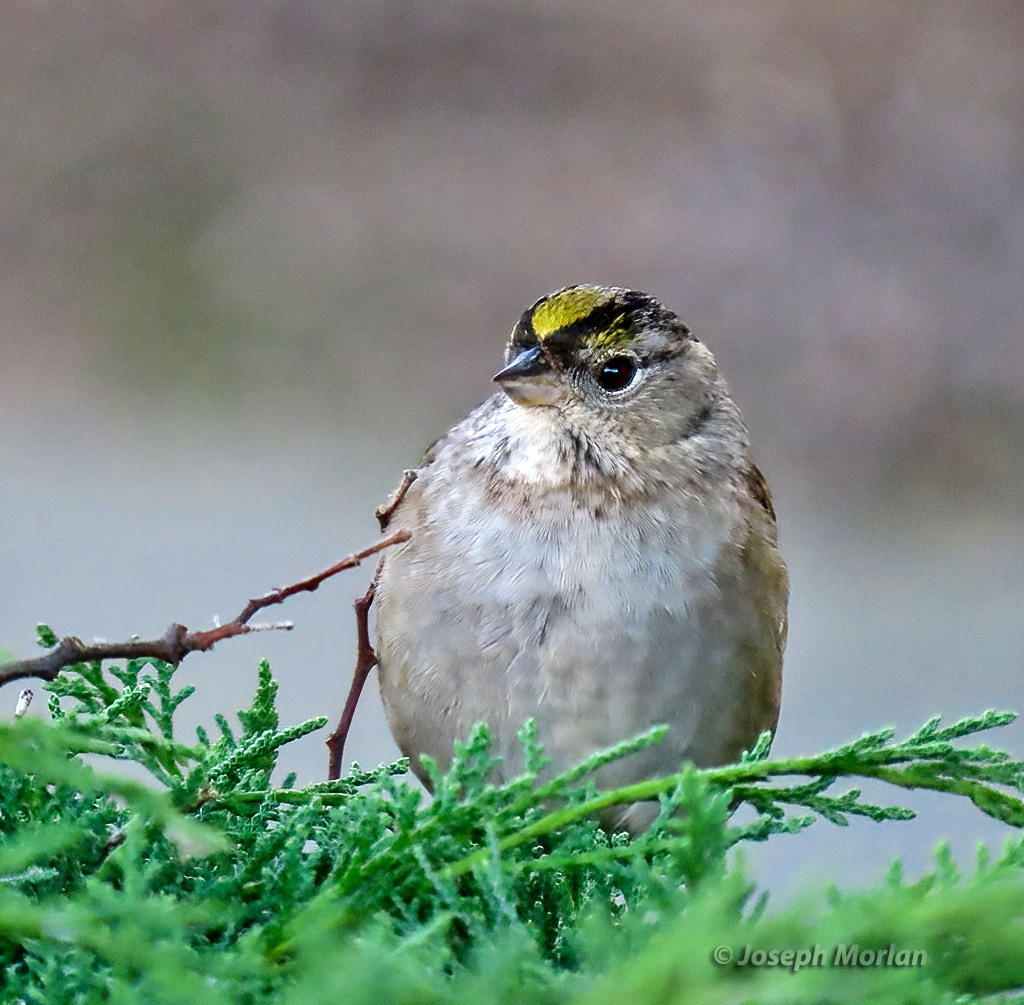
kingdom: Animalia
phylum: Chordata
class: Aves
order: Passeriformes
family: Passerellidae
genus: Zonotrichia
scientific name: Zonotrichia atricapilla
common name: Golden-crowned sparrow
